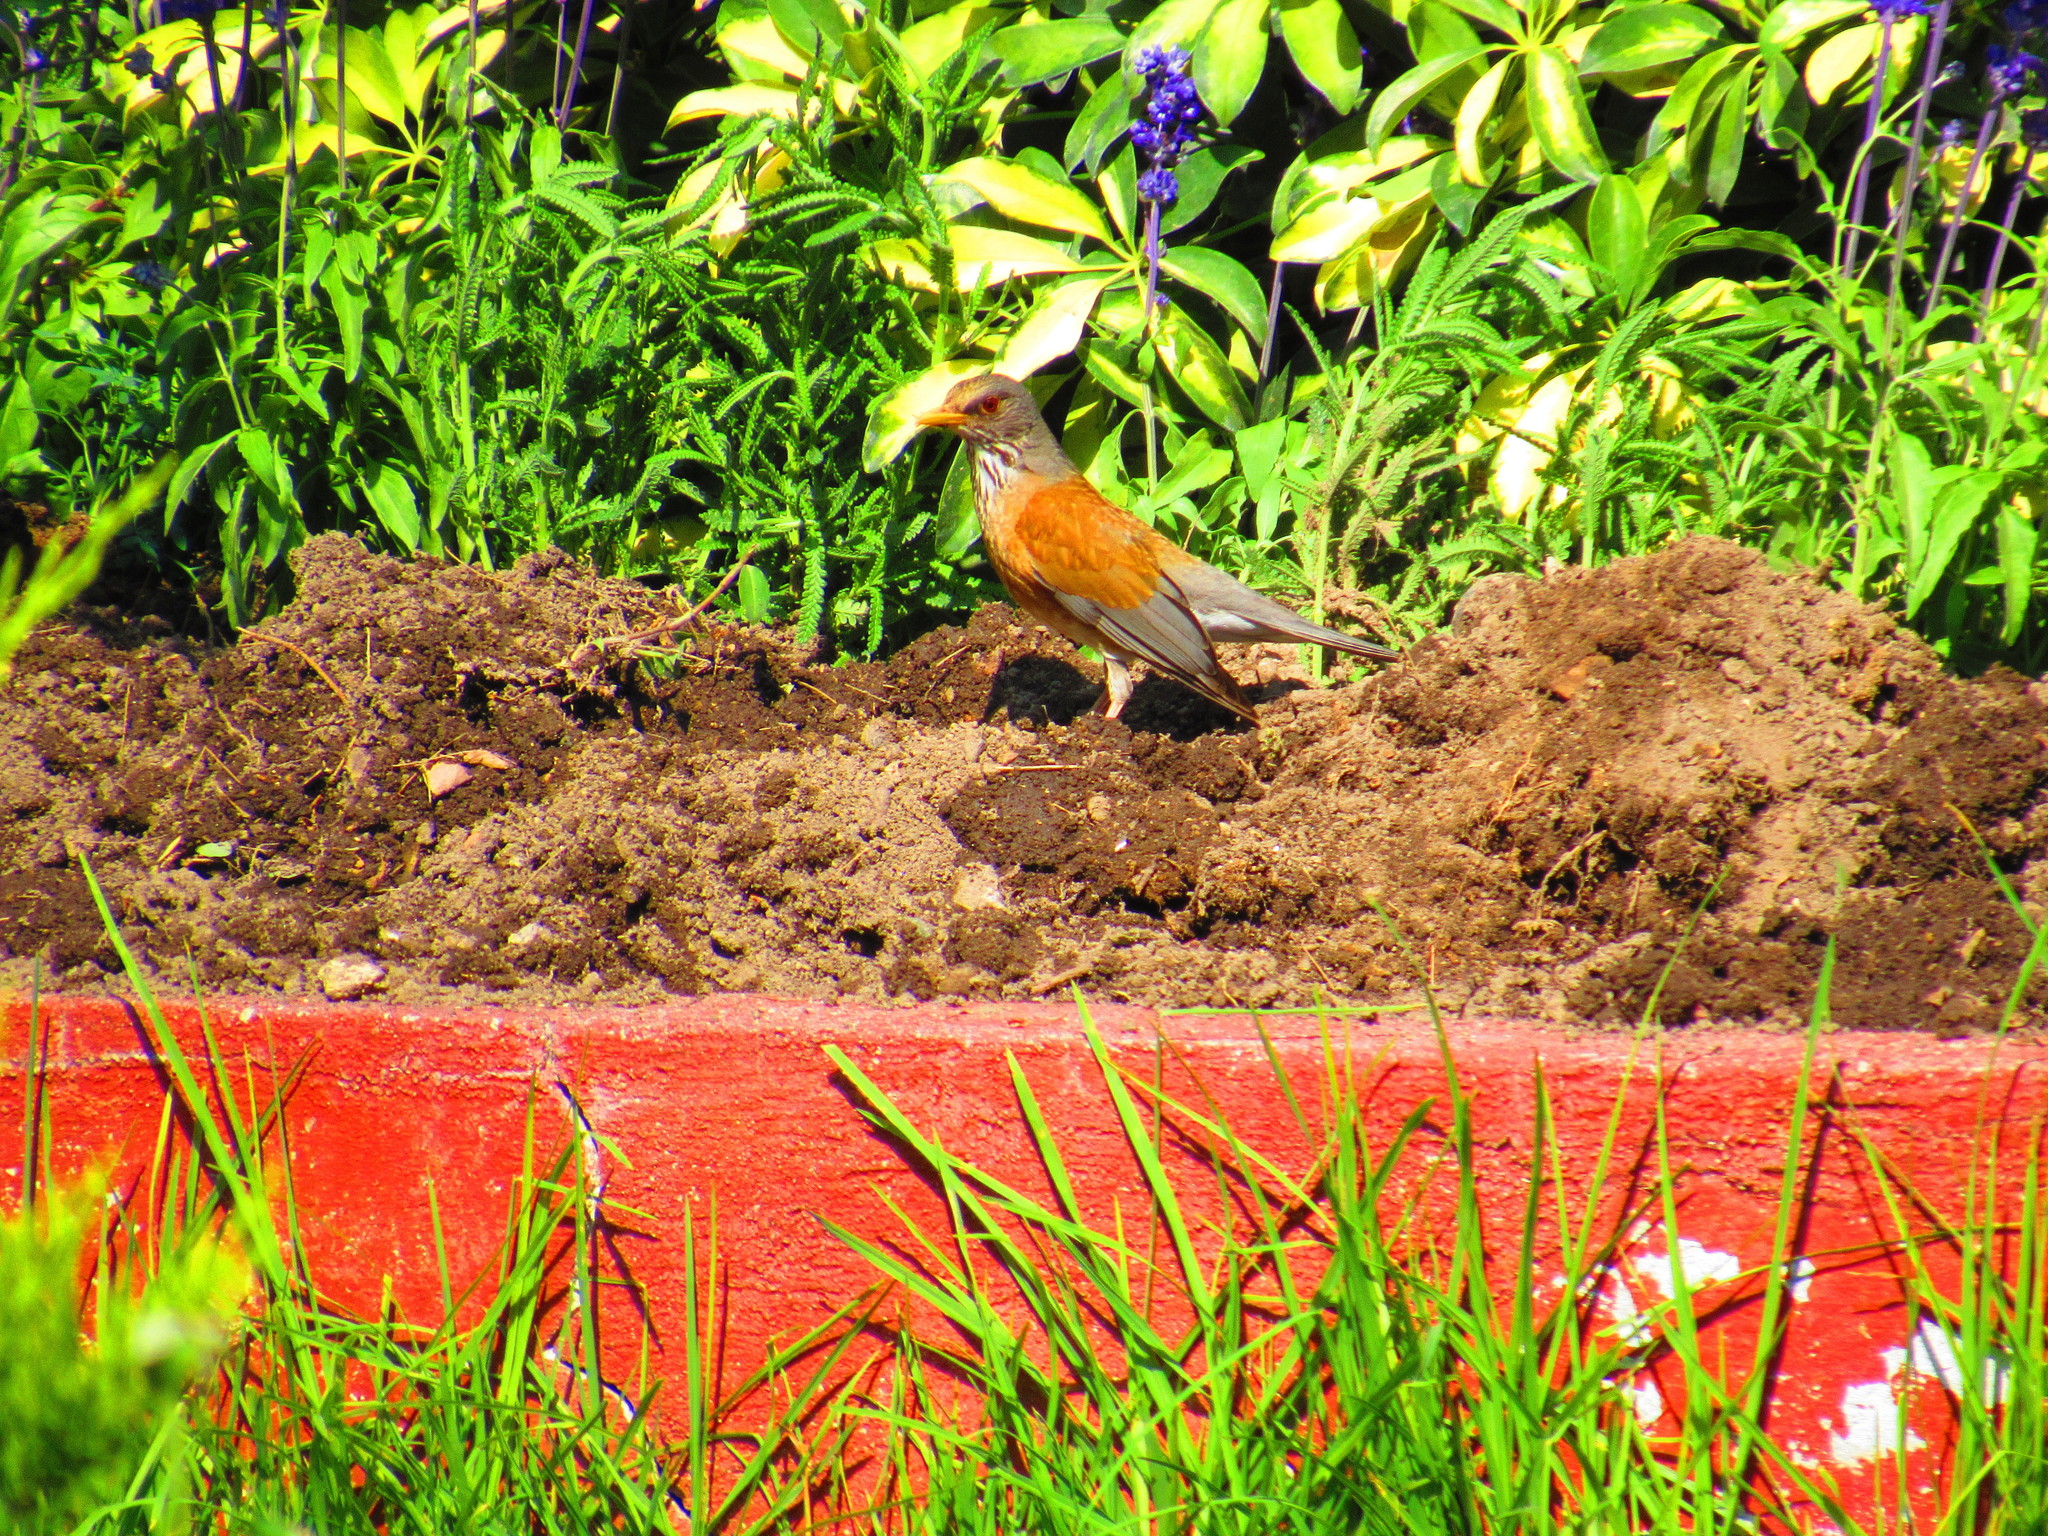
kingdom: Animalia
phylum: Chordata
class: Aves
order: Passeriformes
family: Turdidae
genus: Turdus
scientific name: Turdus rufopalliatus
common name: Rufous-backed robin
